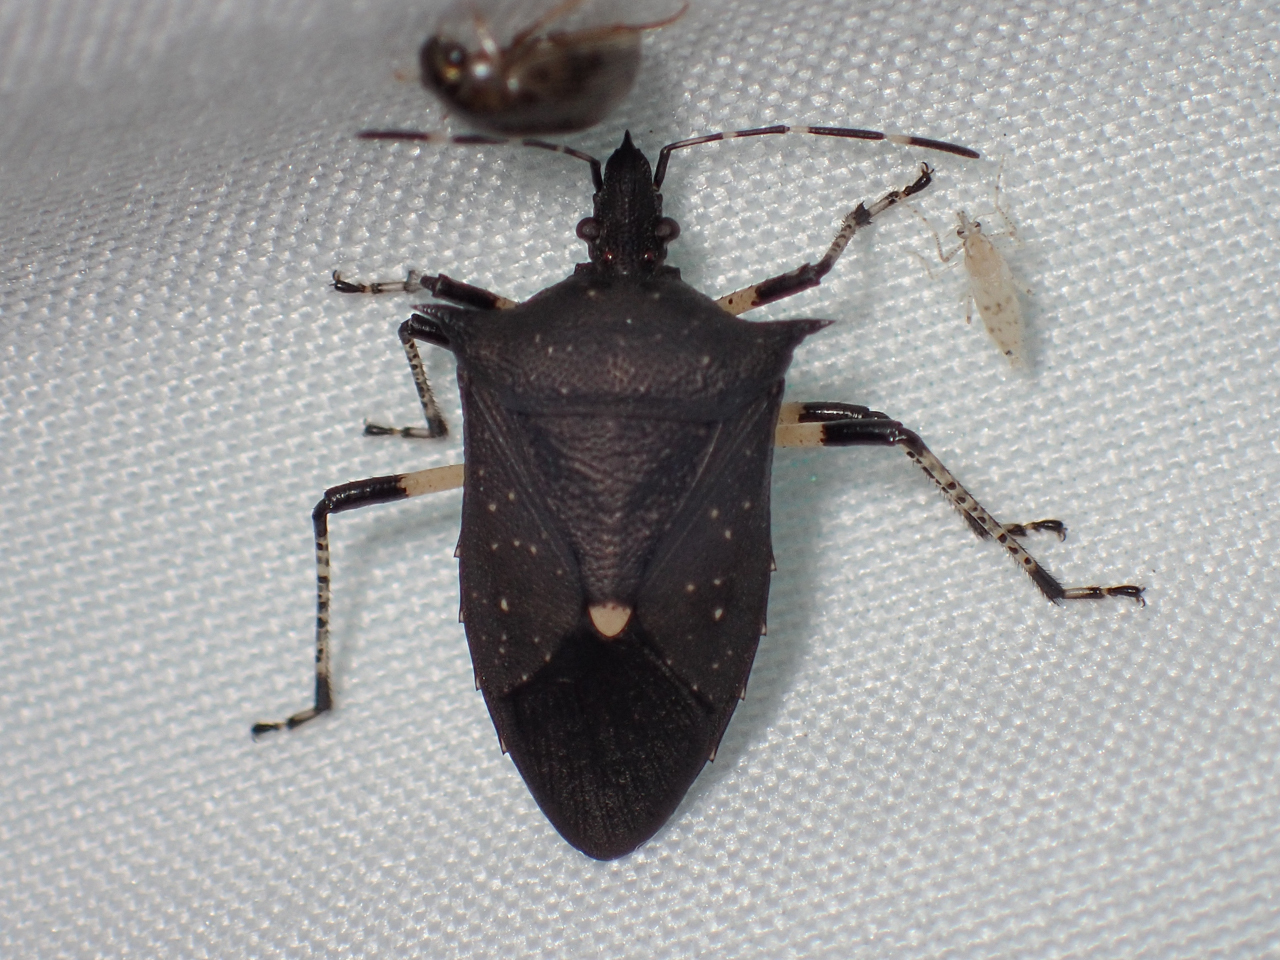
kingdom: Animalia
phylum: Arthropoda
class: Insecta
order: Hemiptera
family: Pentatomidae
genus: Proxys
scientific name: Proxys punctulatus
